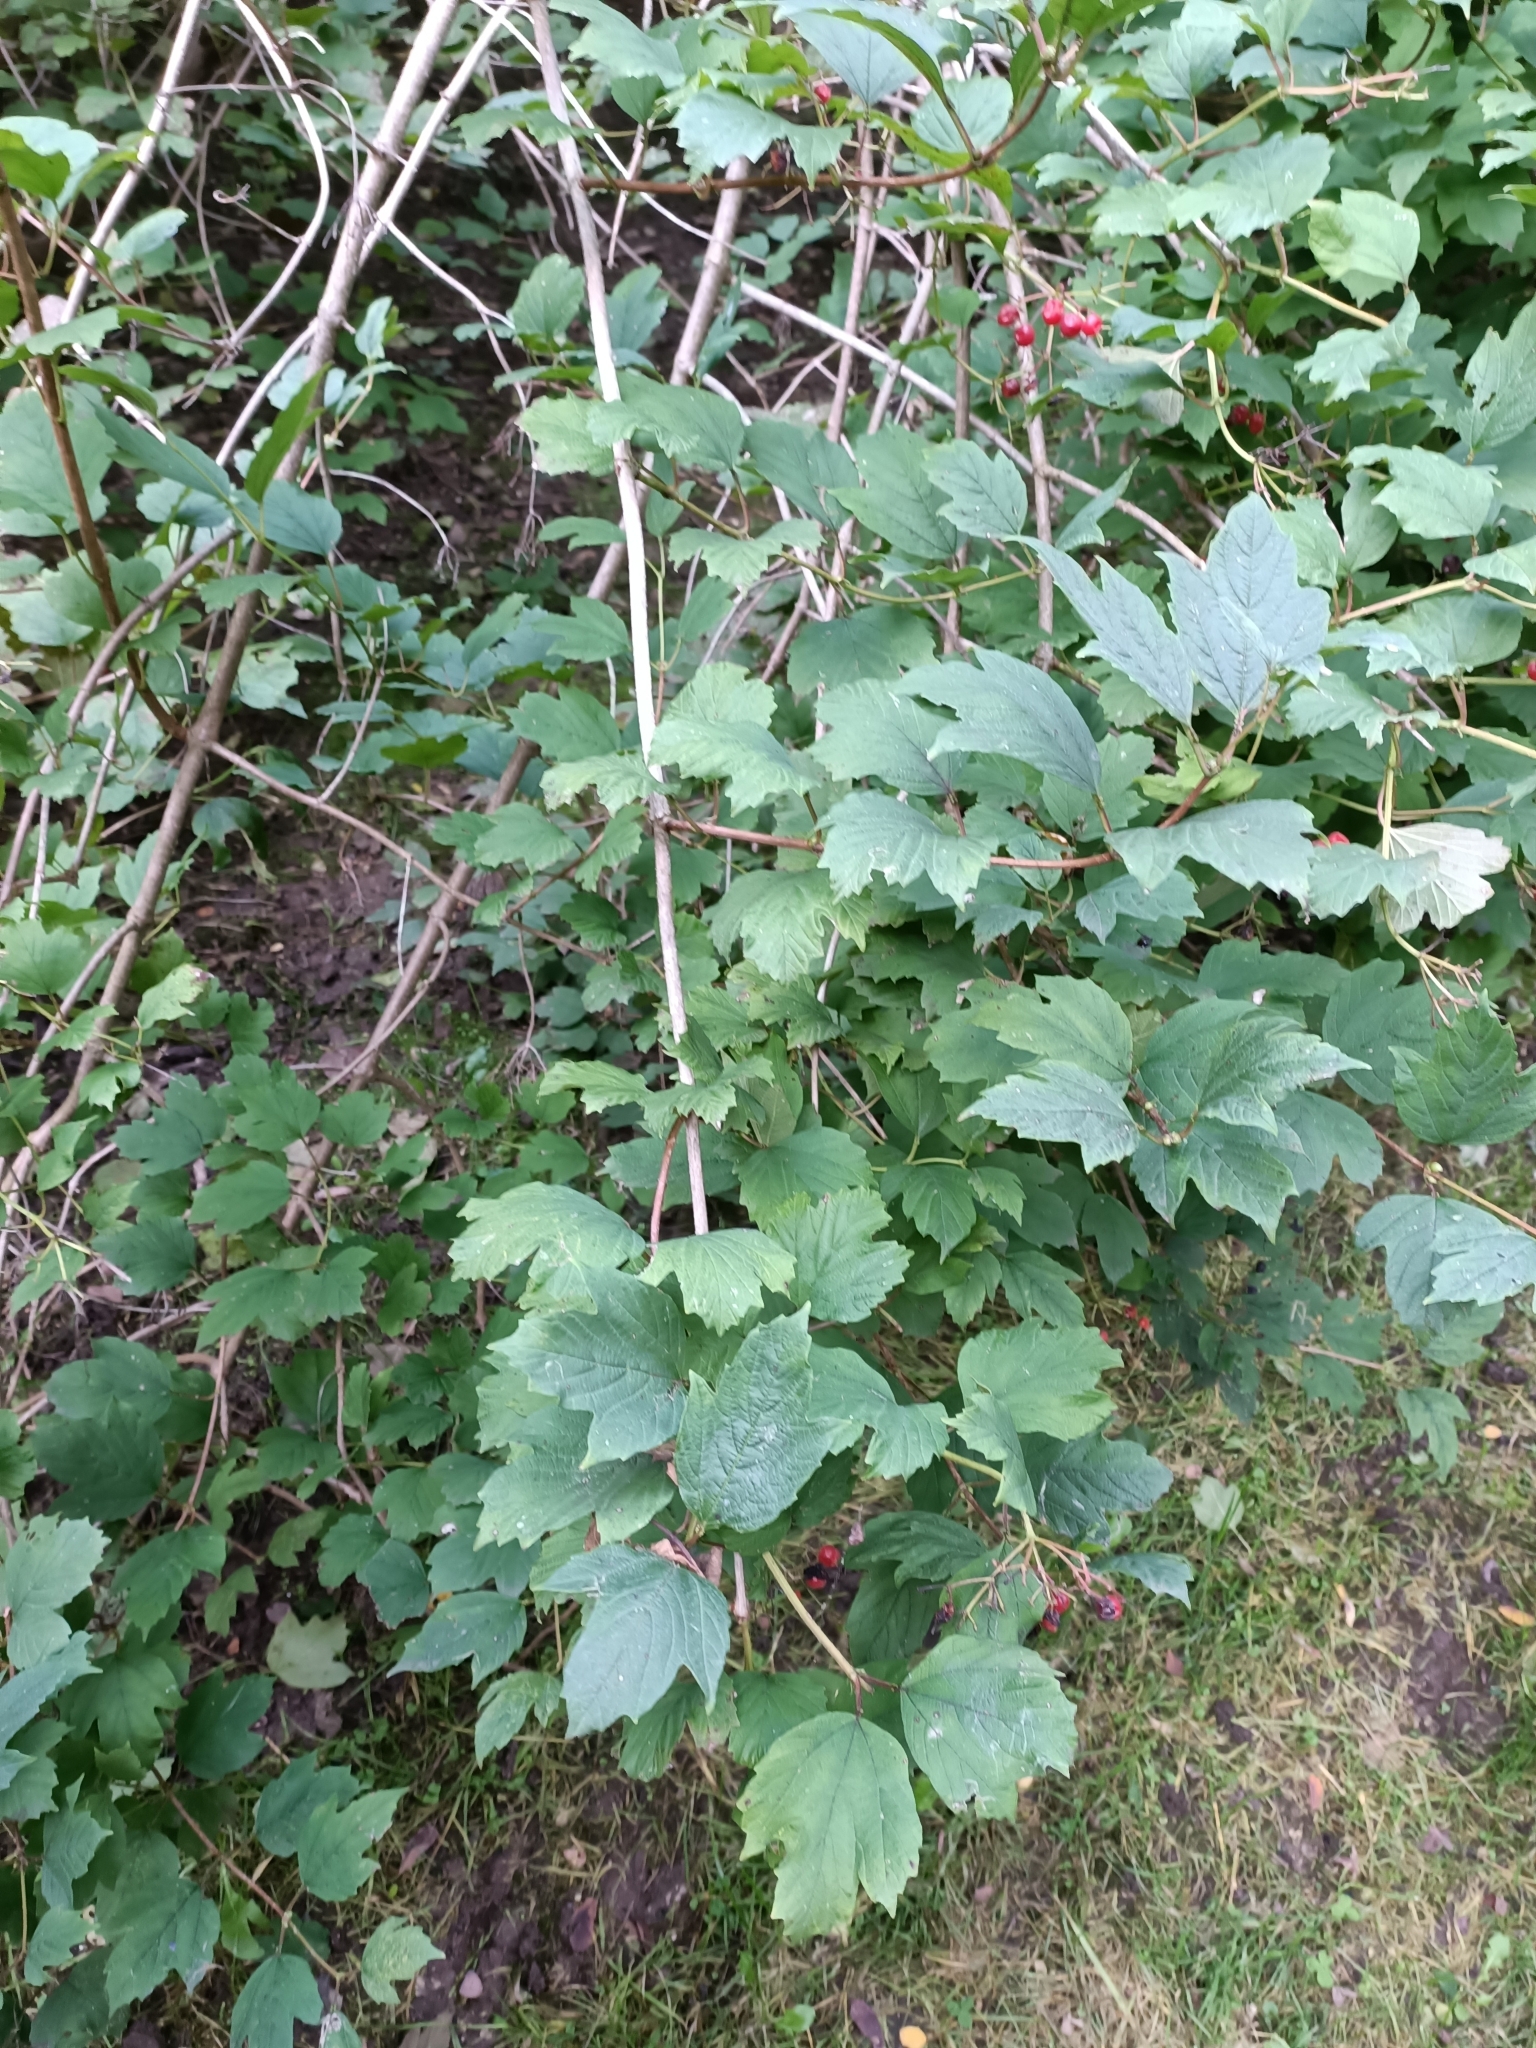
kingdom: Plantae
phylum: Tracheophyta
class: Magnoliopsida
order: Dipsacales
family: Viburnaceae
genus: Viburnum
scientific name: Viburnum opulus
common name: Guelder-rose
